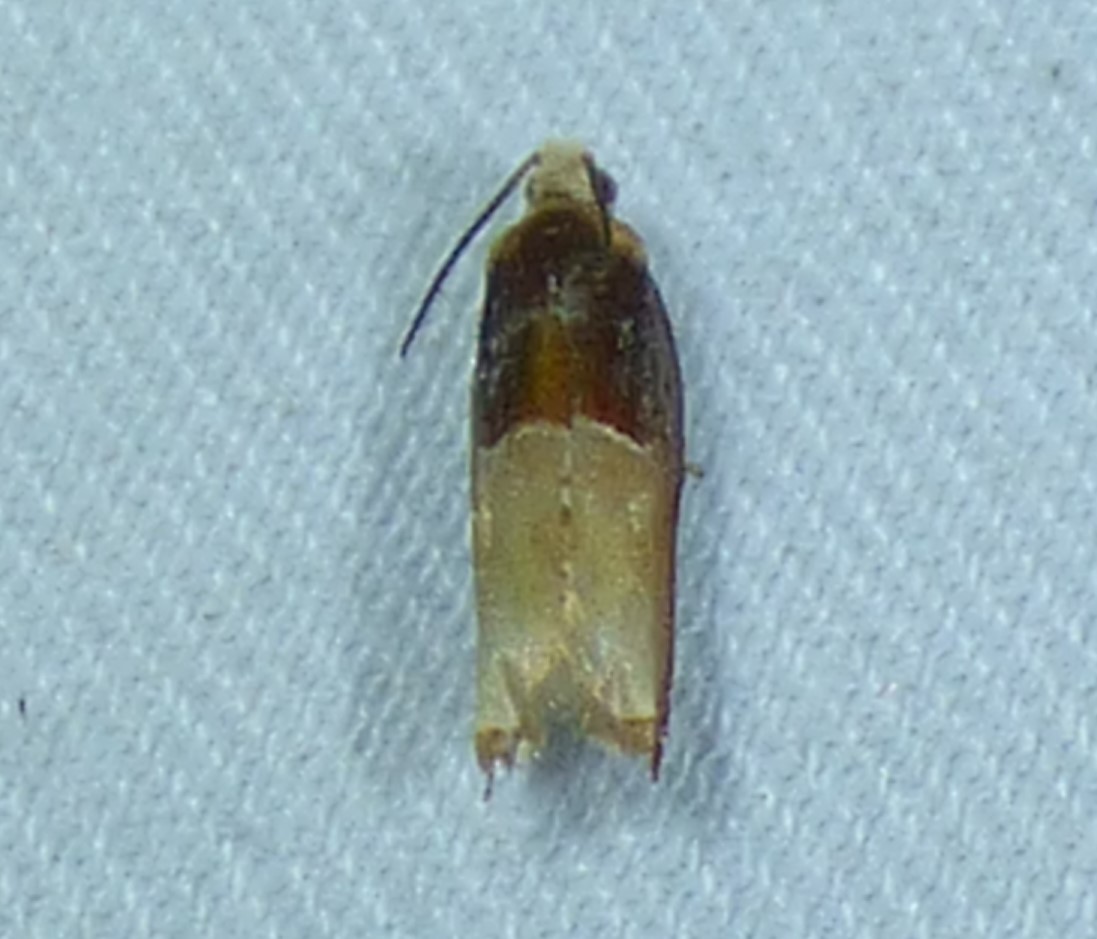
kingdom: Animalia
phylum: Arthropoda
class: Insecta
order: Lepidoptera
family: Tortricidae
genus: Ancylis
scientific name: Ancylis divisana
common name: Two-toned ancylis moth
